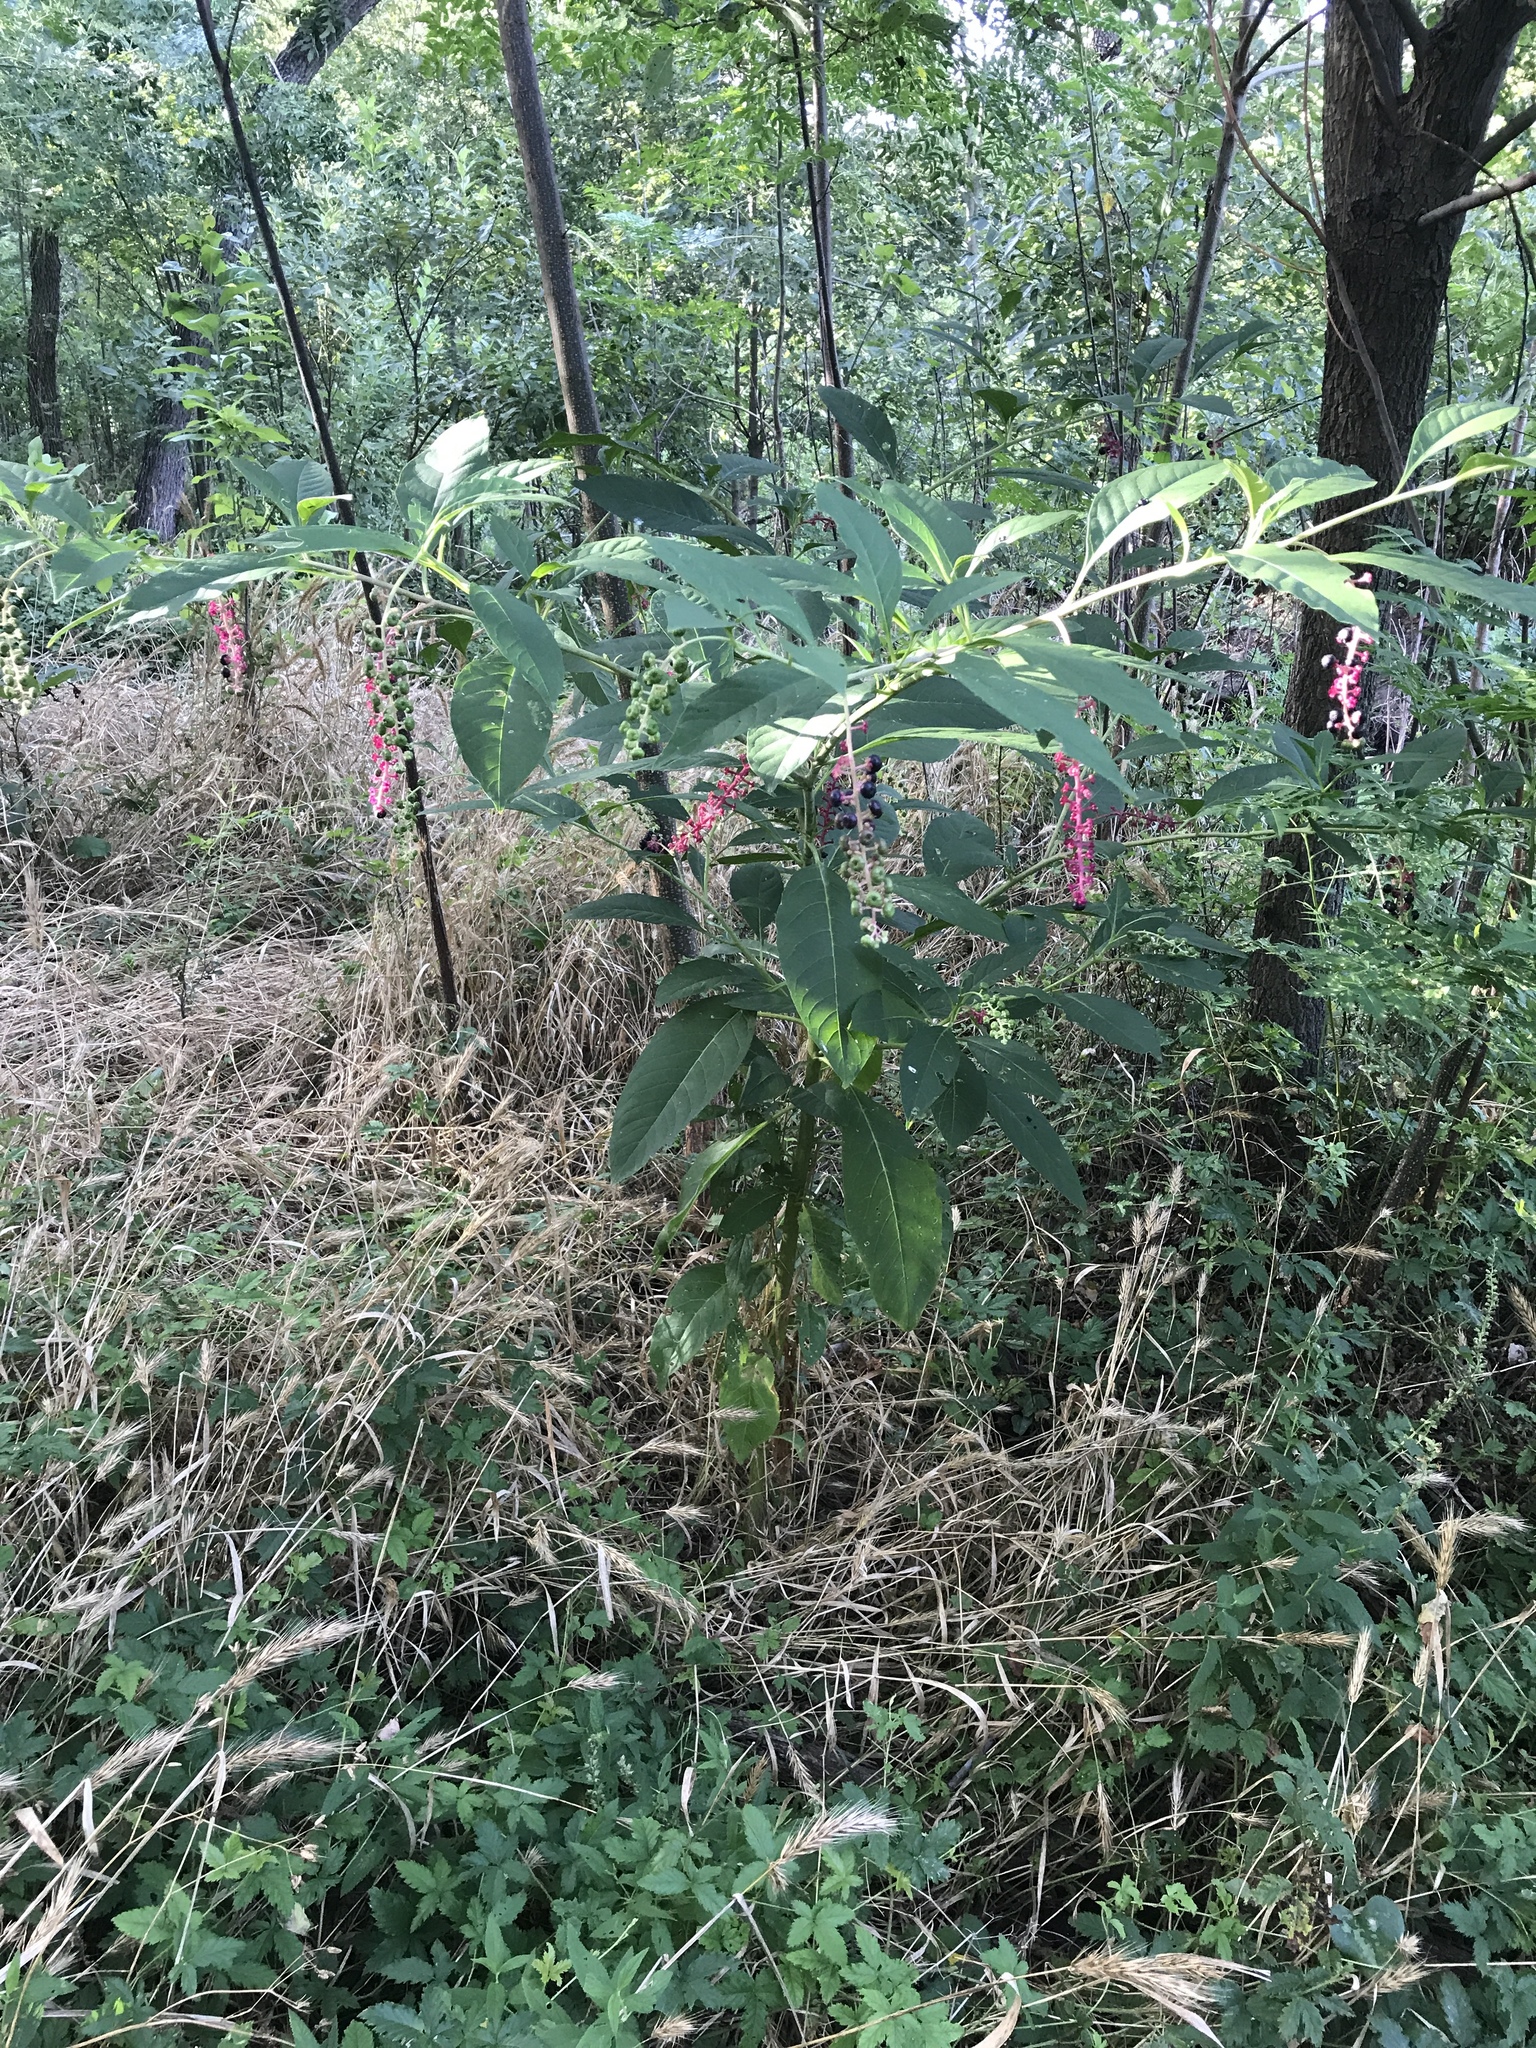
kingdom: Plantae
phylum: Tracheophyta
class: Magnoliopsida
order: Caryophyllales
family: Phytolaccaceae
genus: Phytolacca
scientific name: Phytolacca americana
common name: American pokeweed
